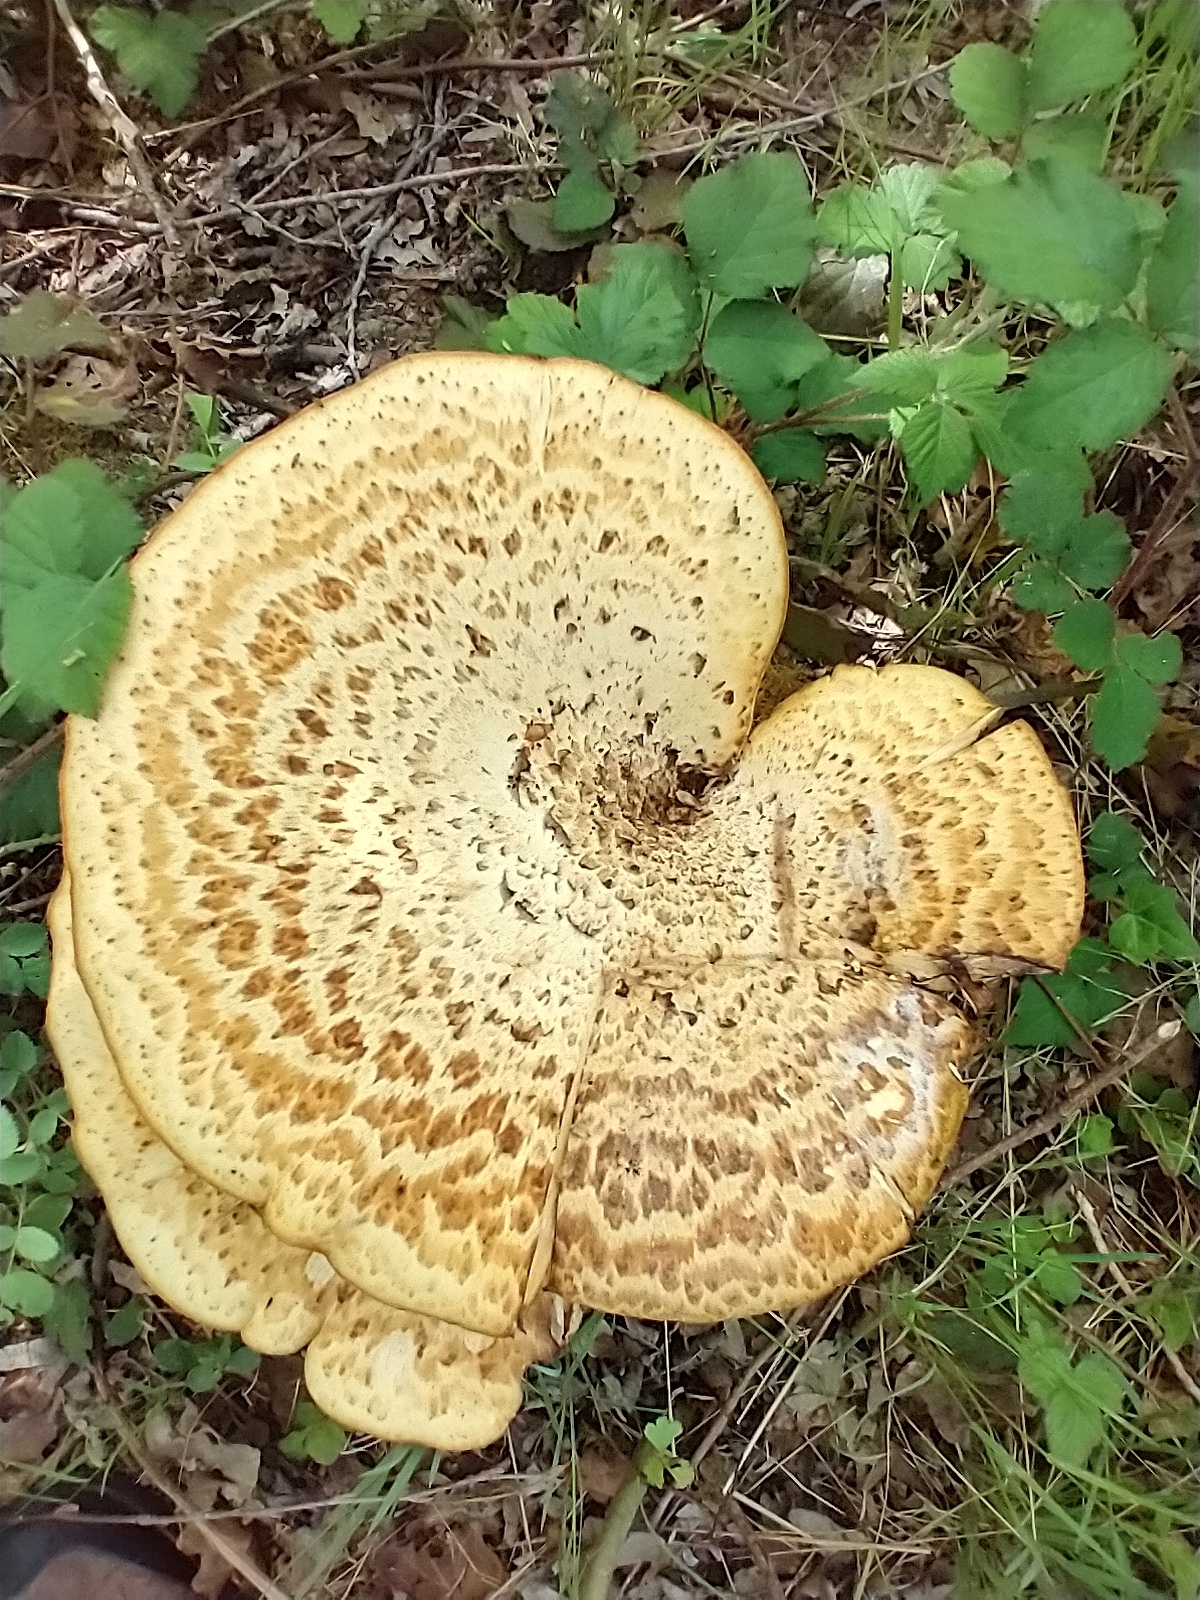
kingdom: Fungi
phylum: Basidiomycota
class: Agaricomycetes
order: Polyporales
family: Polyporaceae
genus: Cerioporus
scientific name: Cerioporus squamosus
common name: Dryad's saddle
